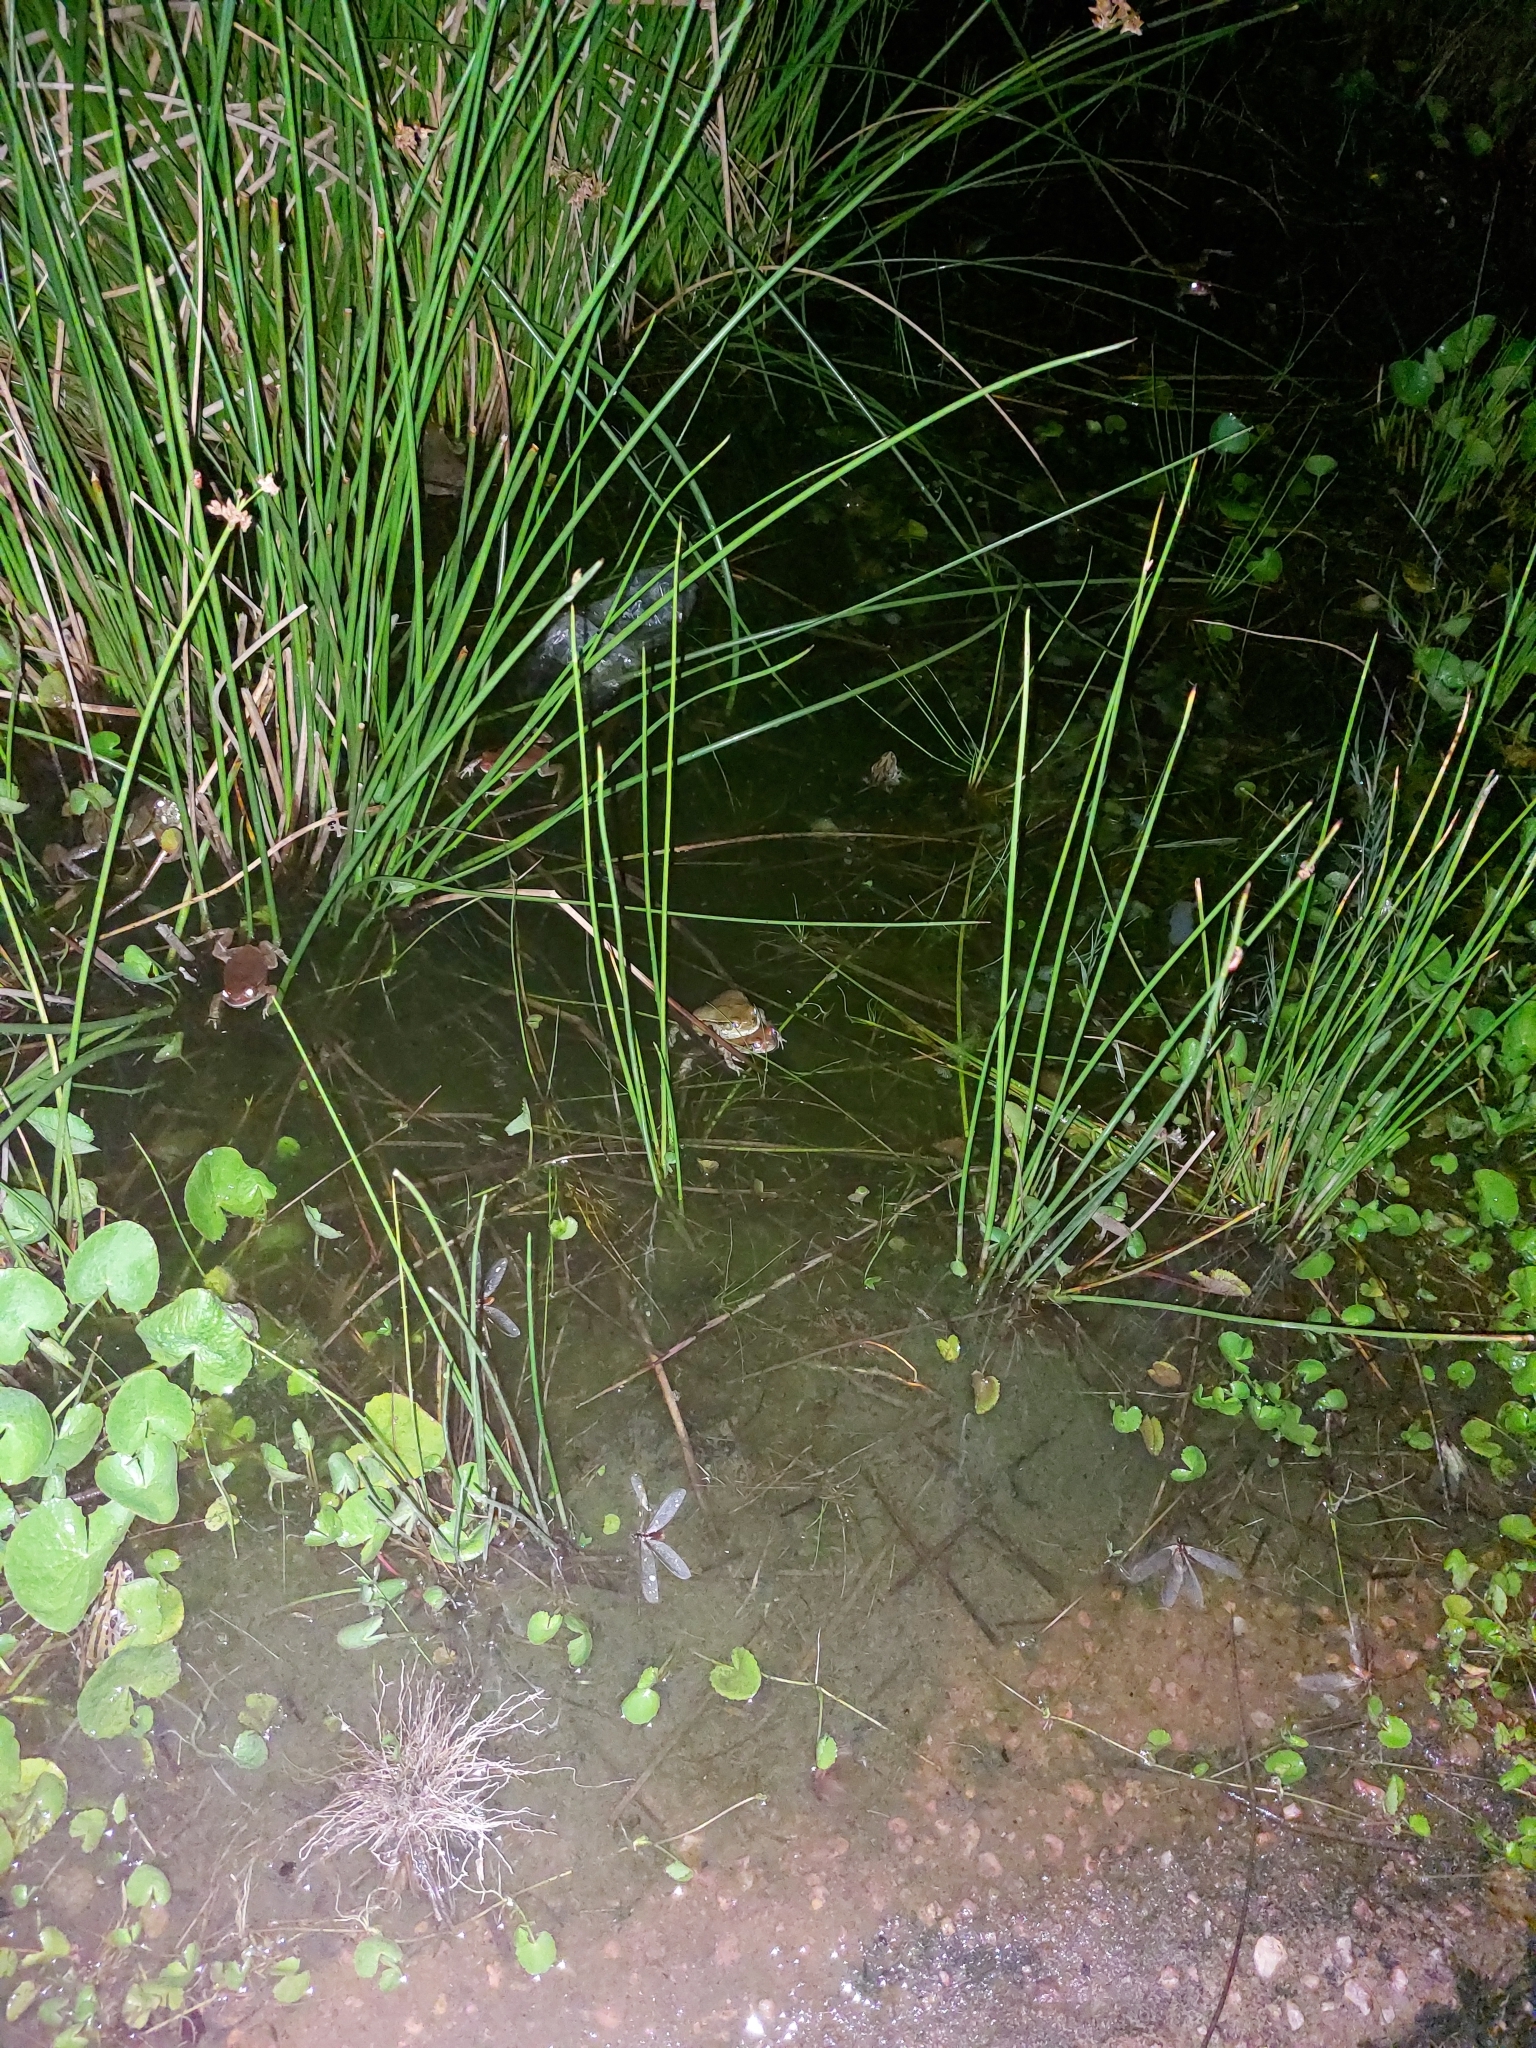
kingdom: Animalia
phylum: Chordata
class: Amphibia
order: Anura
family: Bufonidae
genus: Schismaderma
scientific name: Schismaderma carens
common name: African split-skin toad
